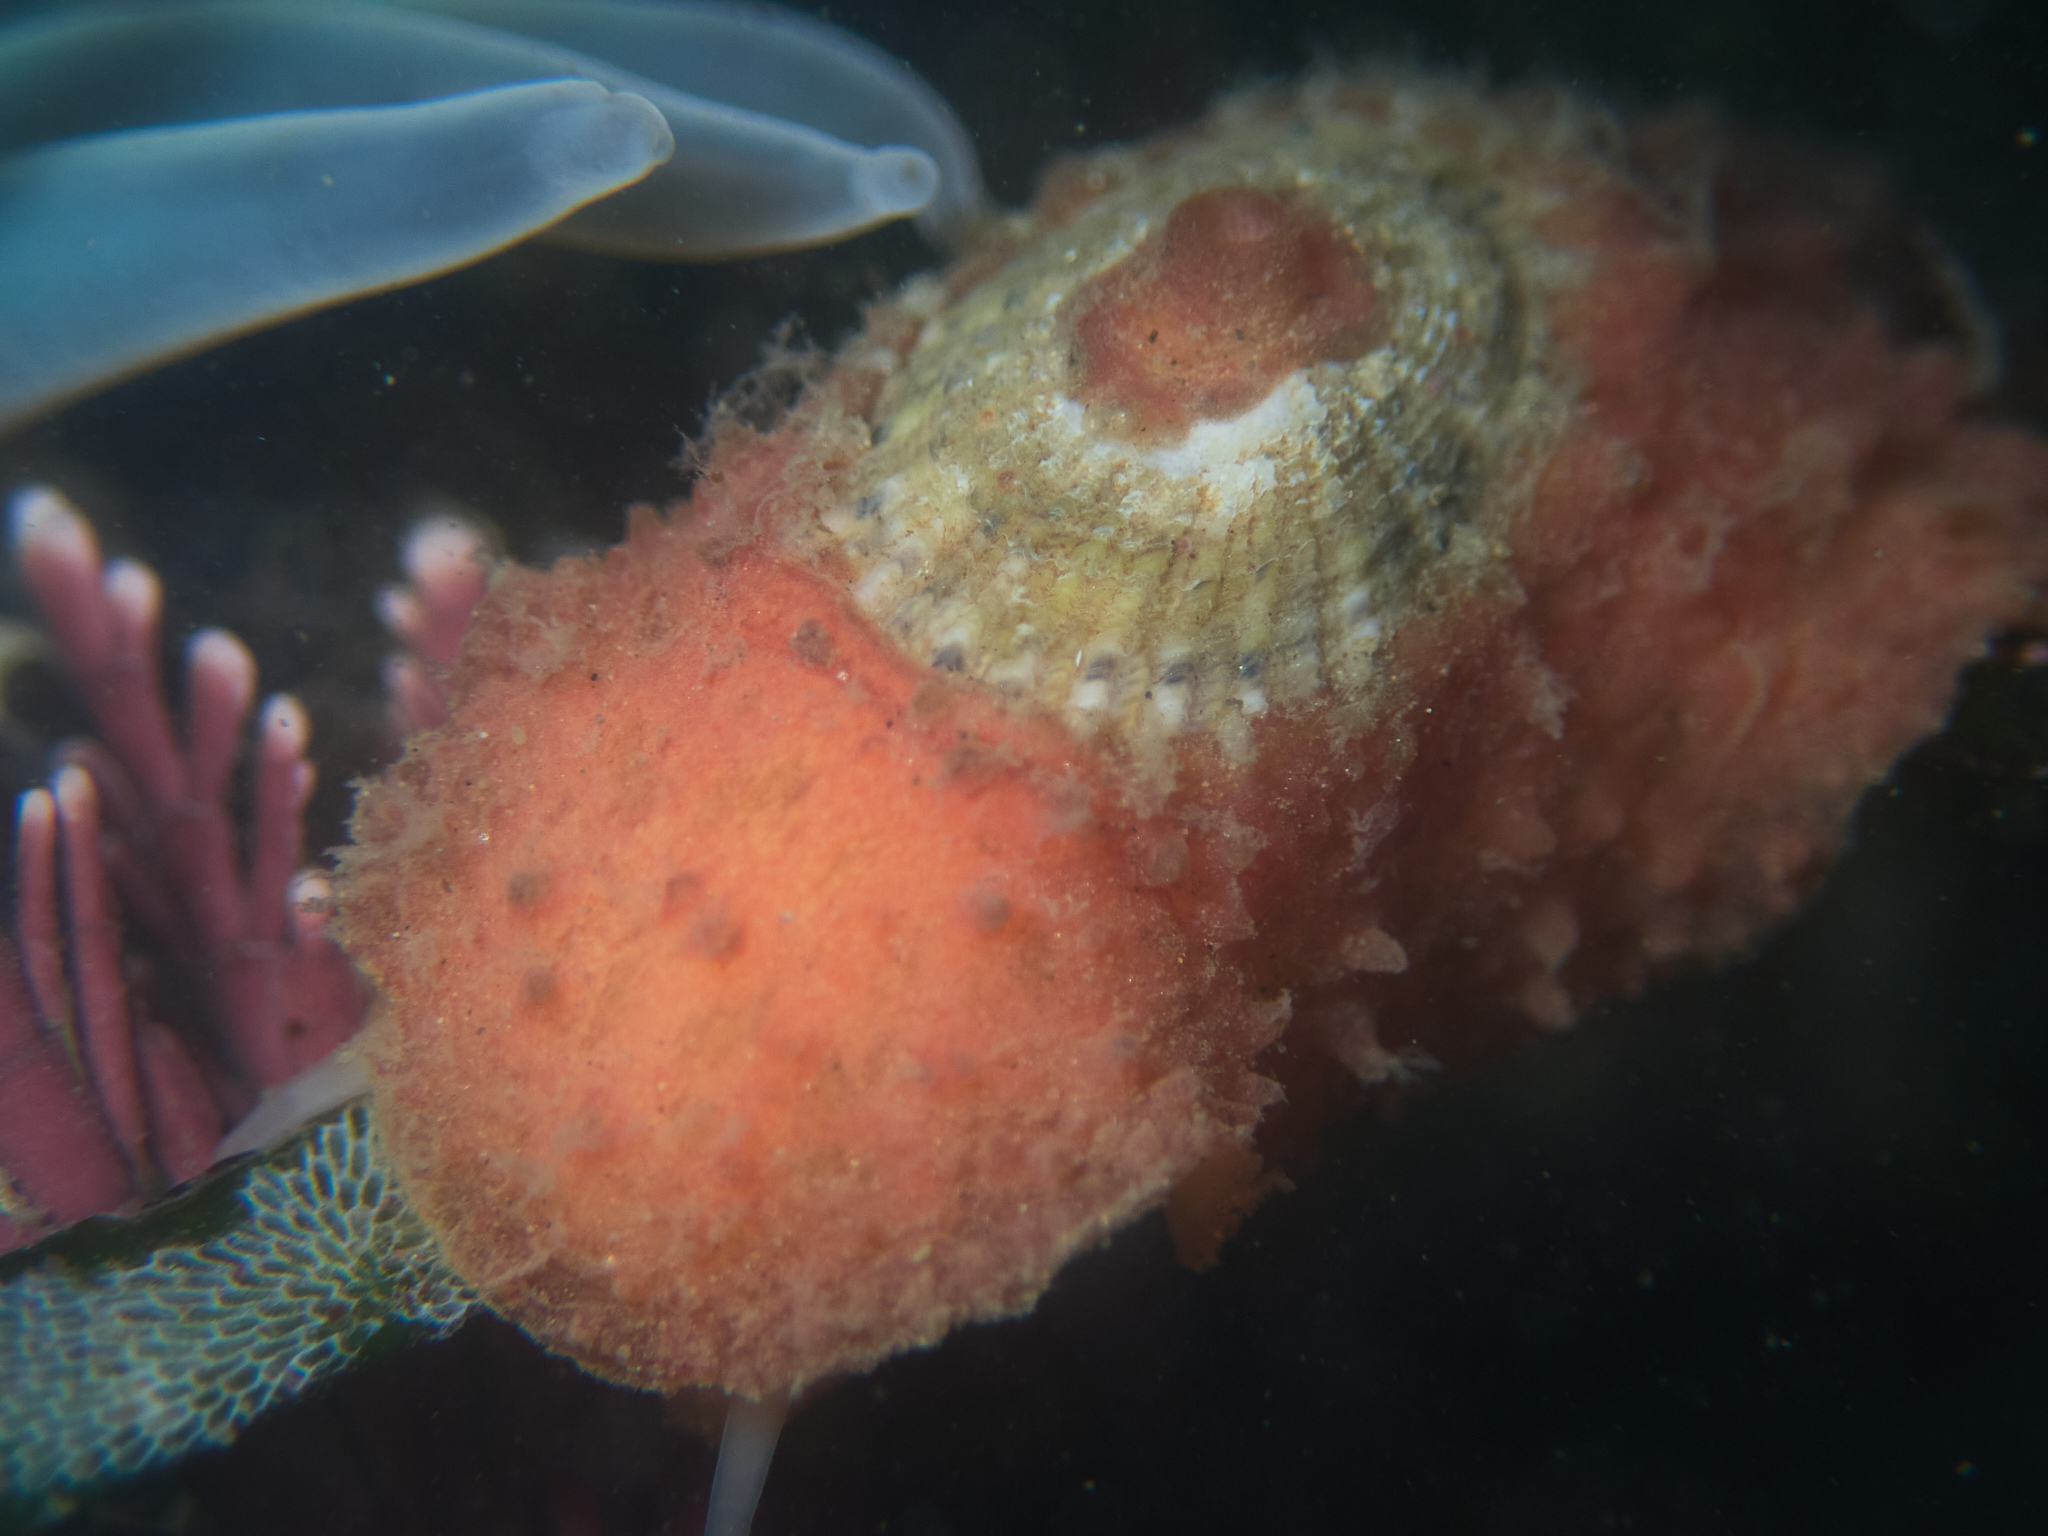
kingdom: Animalia
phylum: Mollusca
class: Gastropoda
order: Lepetellida
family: Fissurellidae
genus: Fissurellidea
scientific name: Fissurellidea bimaculata
